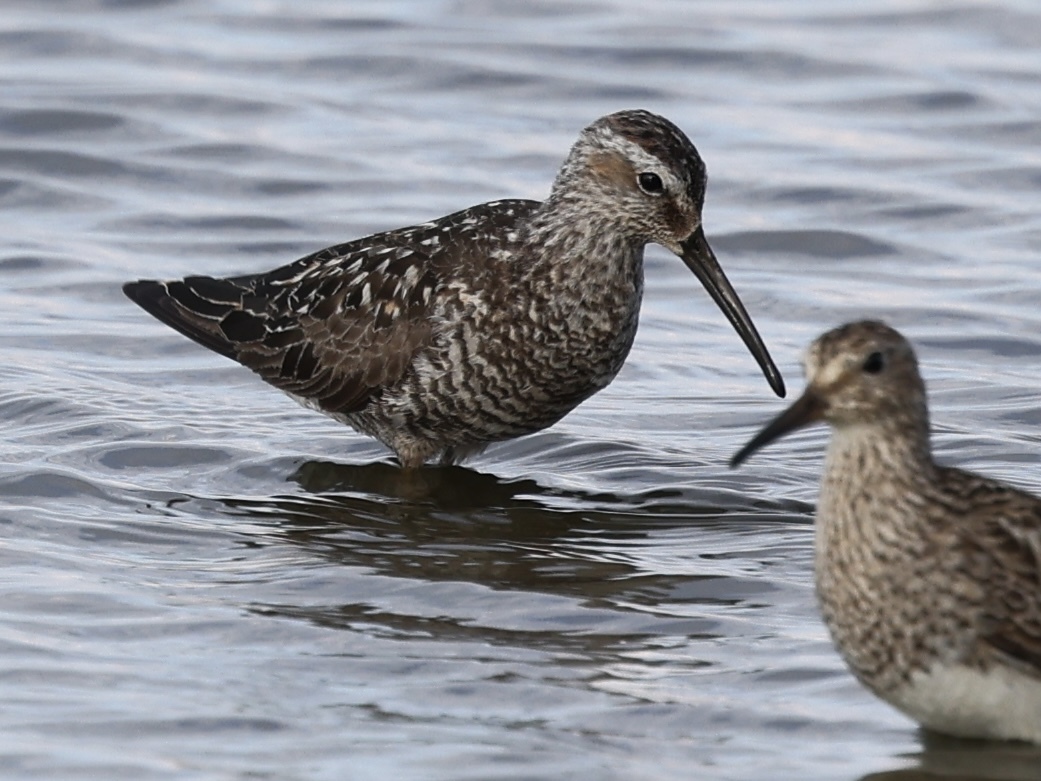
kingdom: Animalia
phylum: Chordata
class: Aves
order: Charadriiformes
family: Scolopacidae
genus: Calidris
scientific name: Calidris himantopus
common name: Stilt sandpiper
